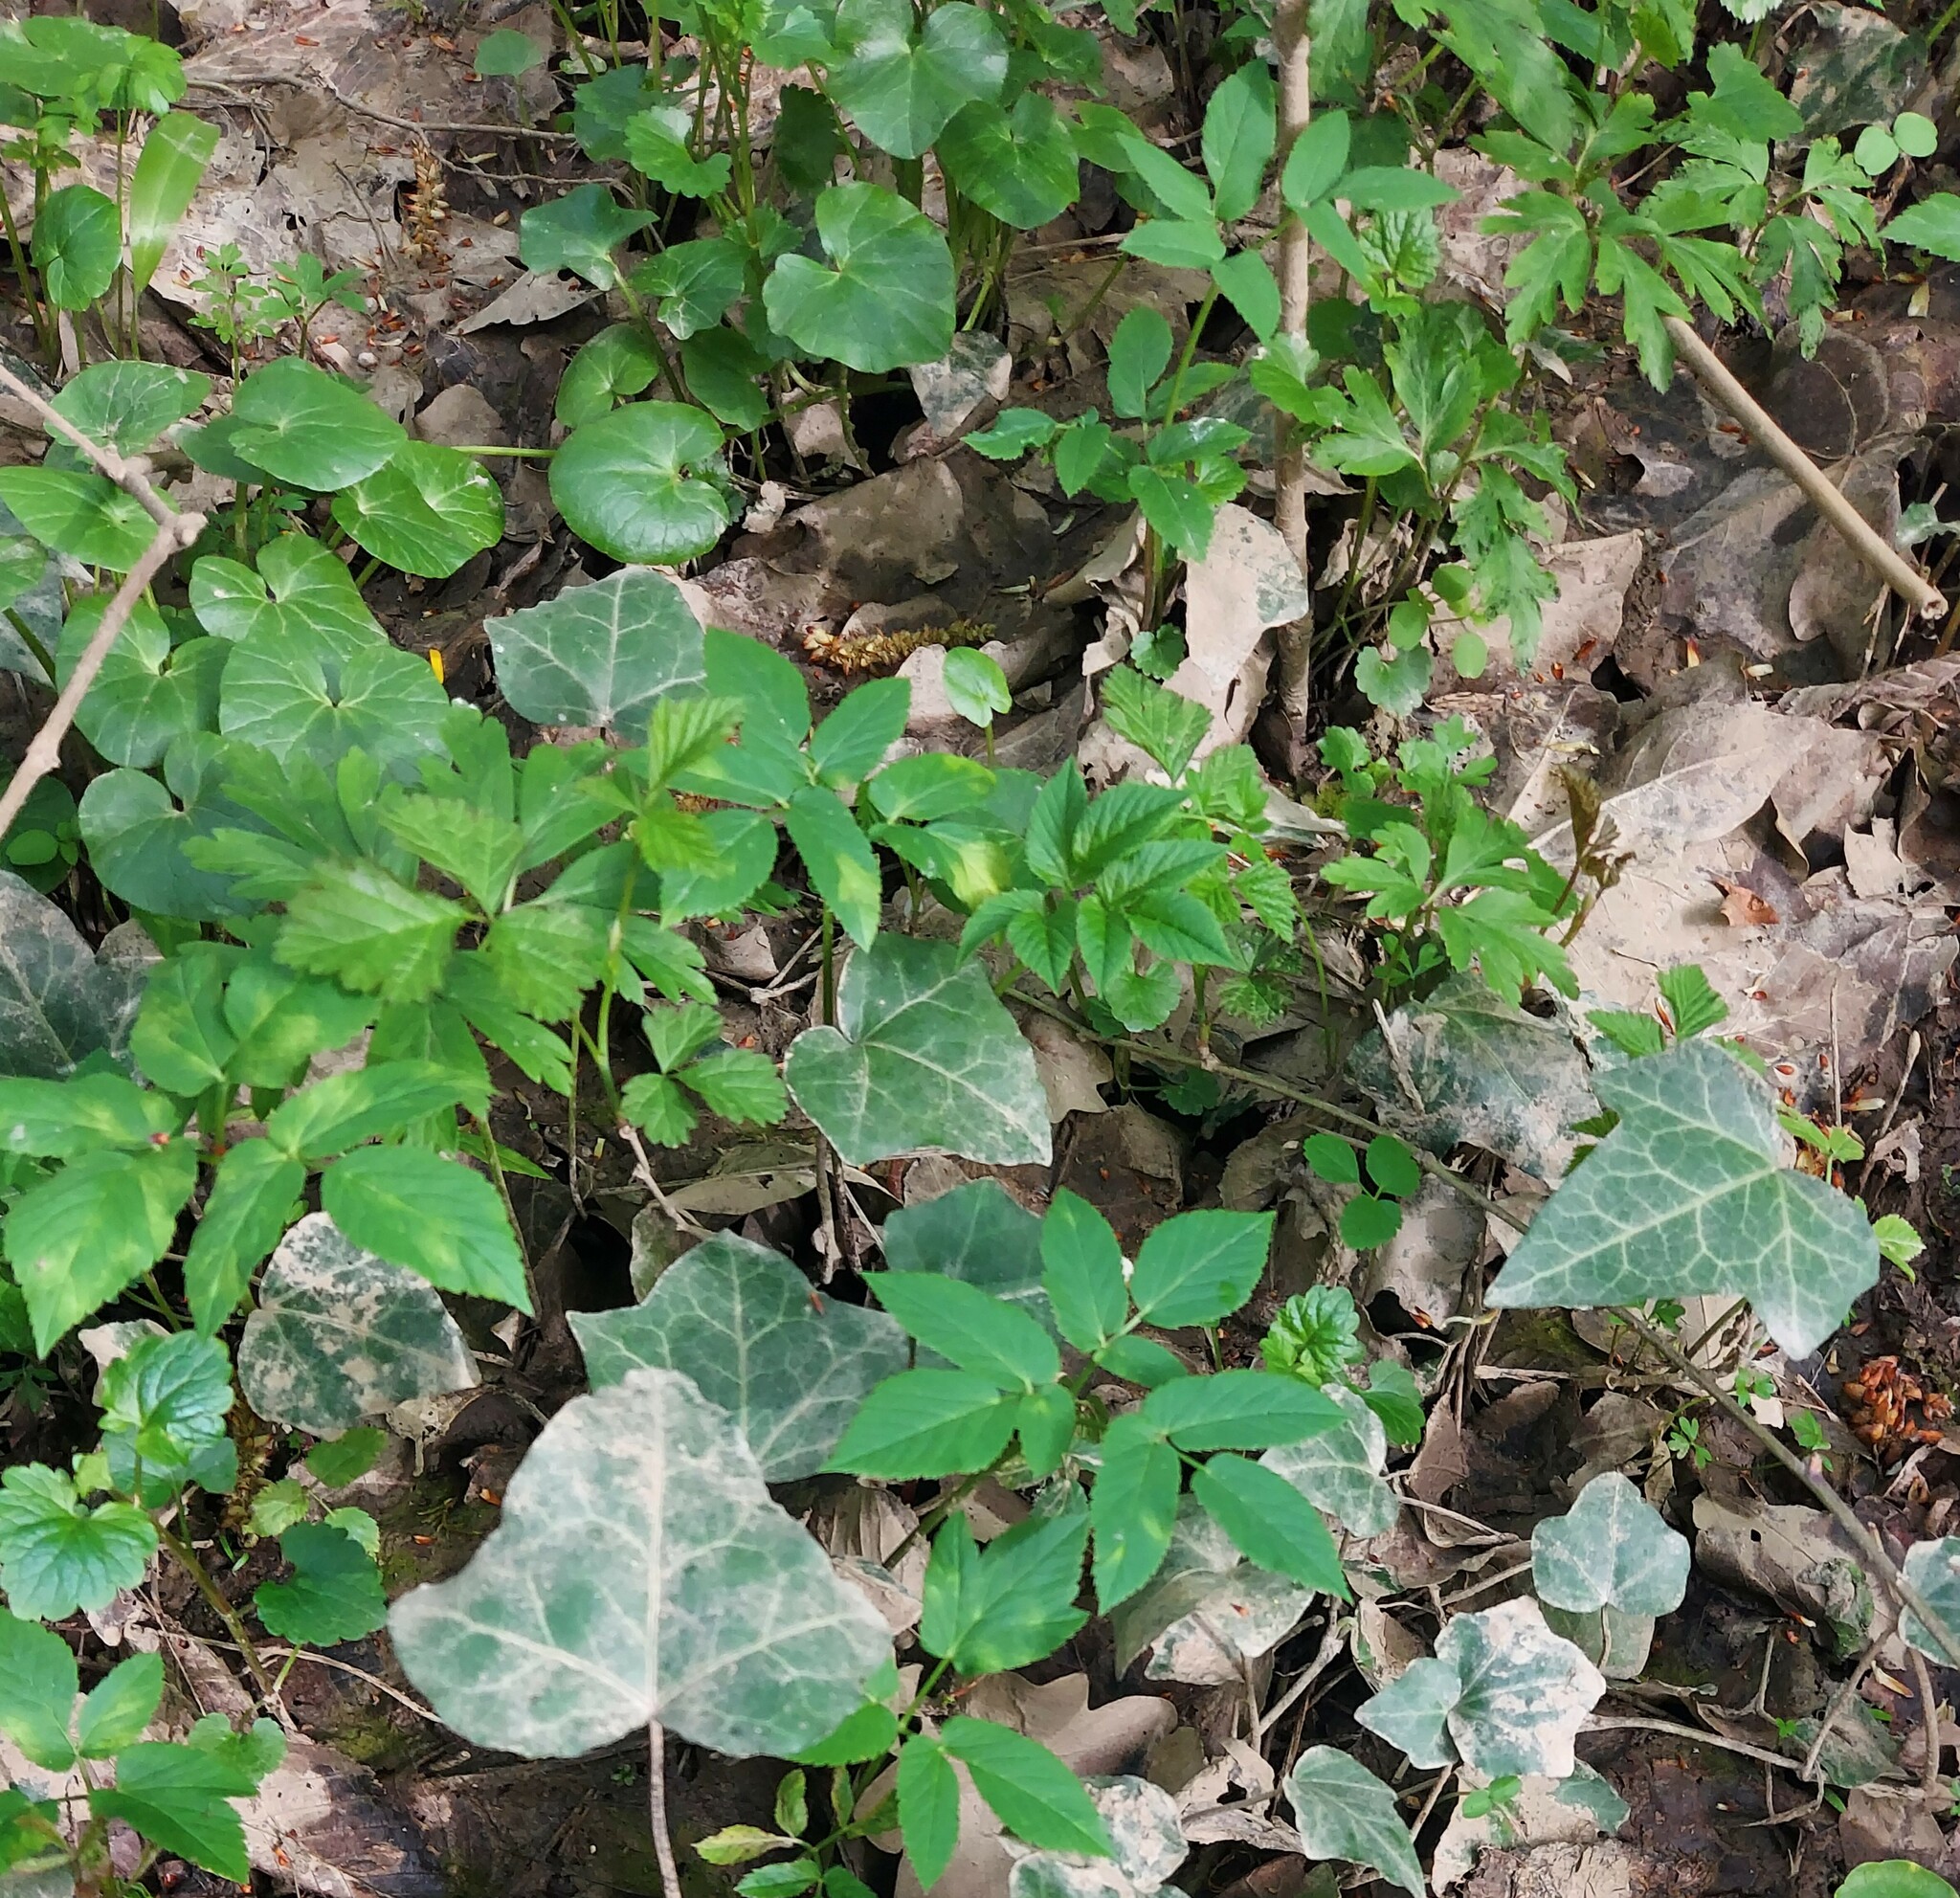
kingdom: Plantae
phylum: Tracheophyta
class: Magnoliopsida
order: Apiales
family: Araliaceae
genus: Hedera
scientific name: Hedera helix
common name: Ivy
